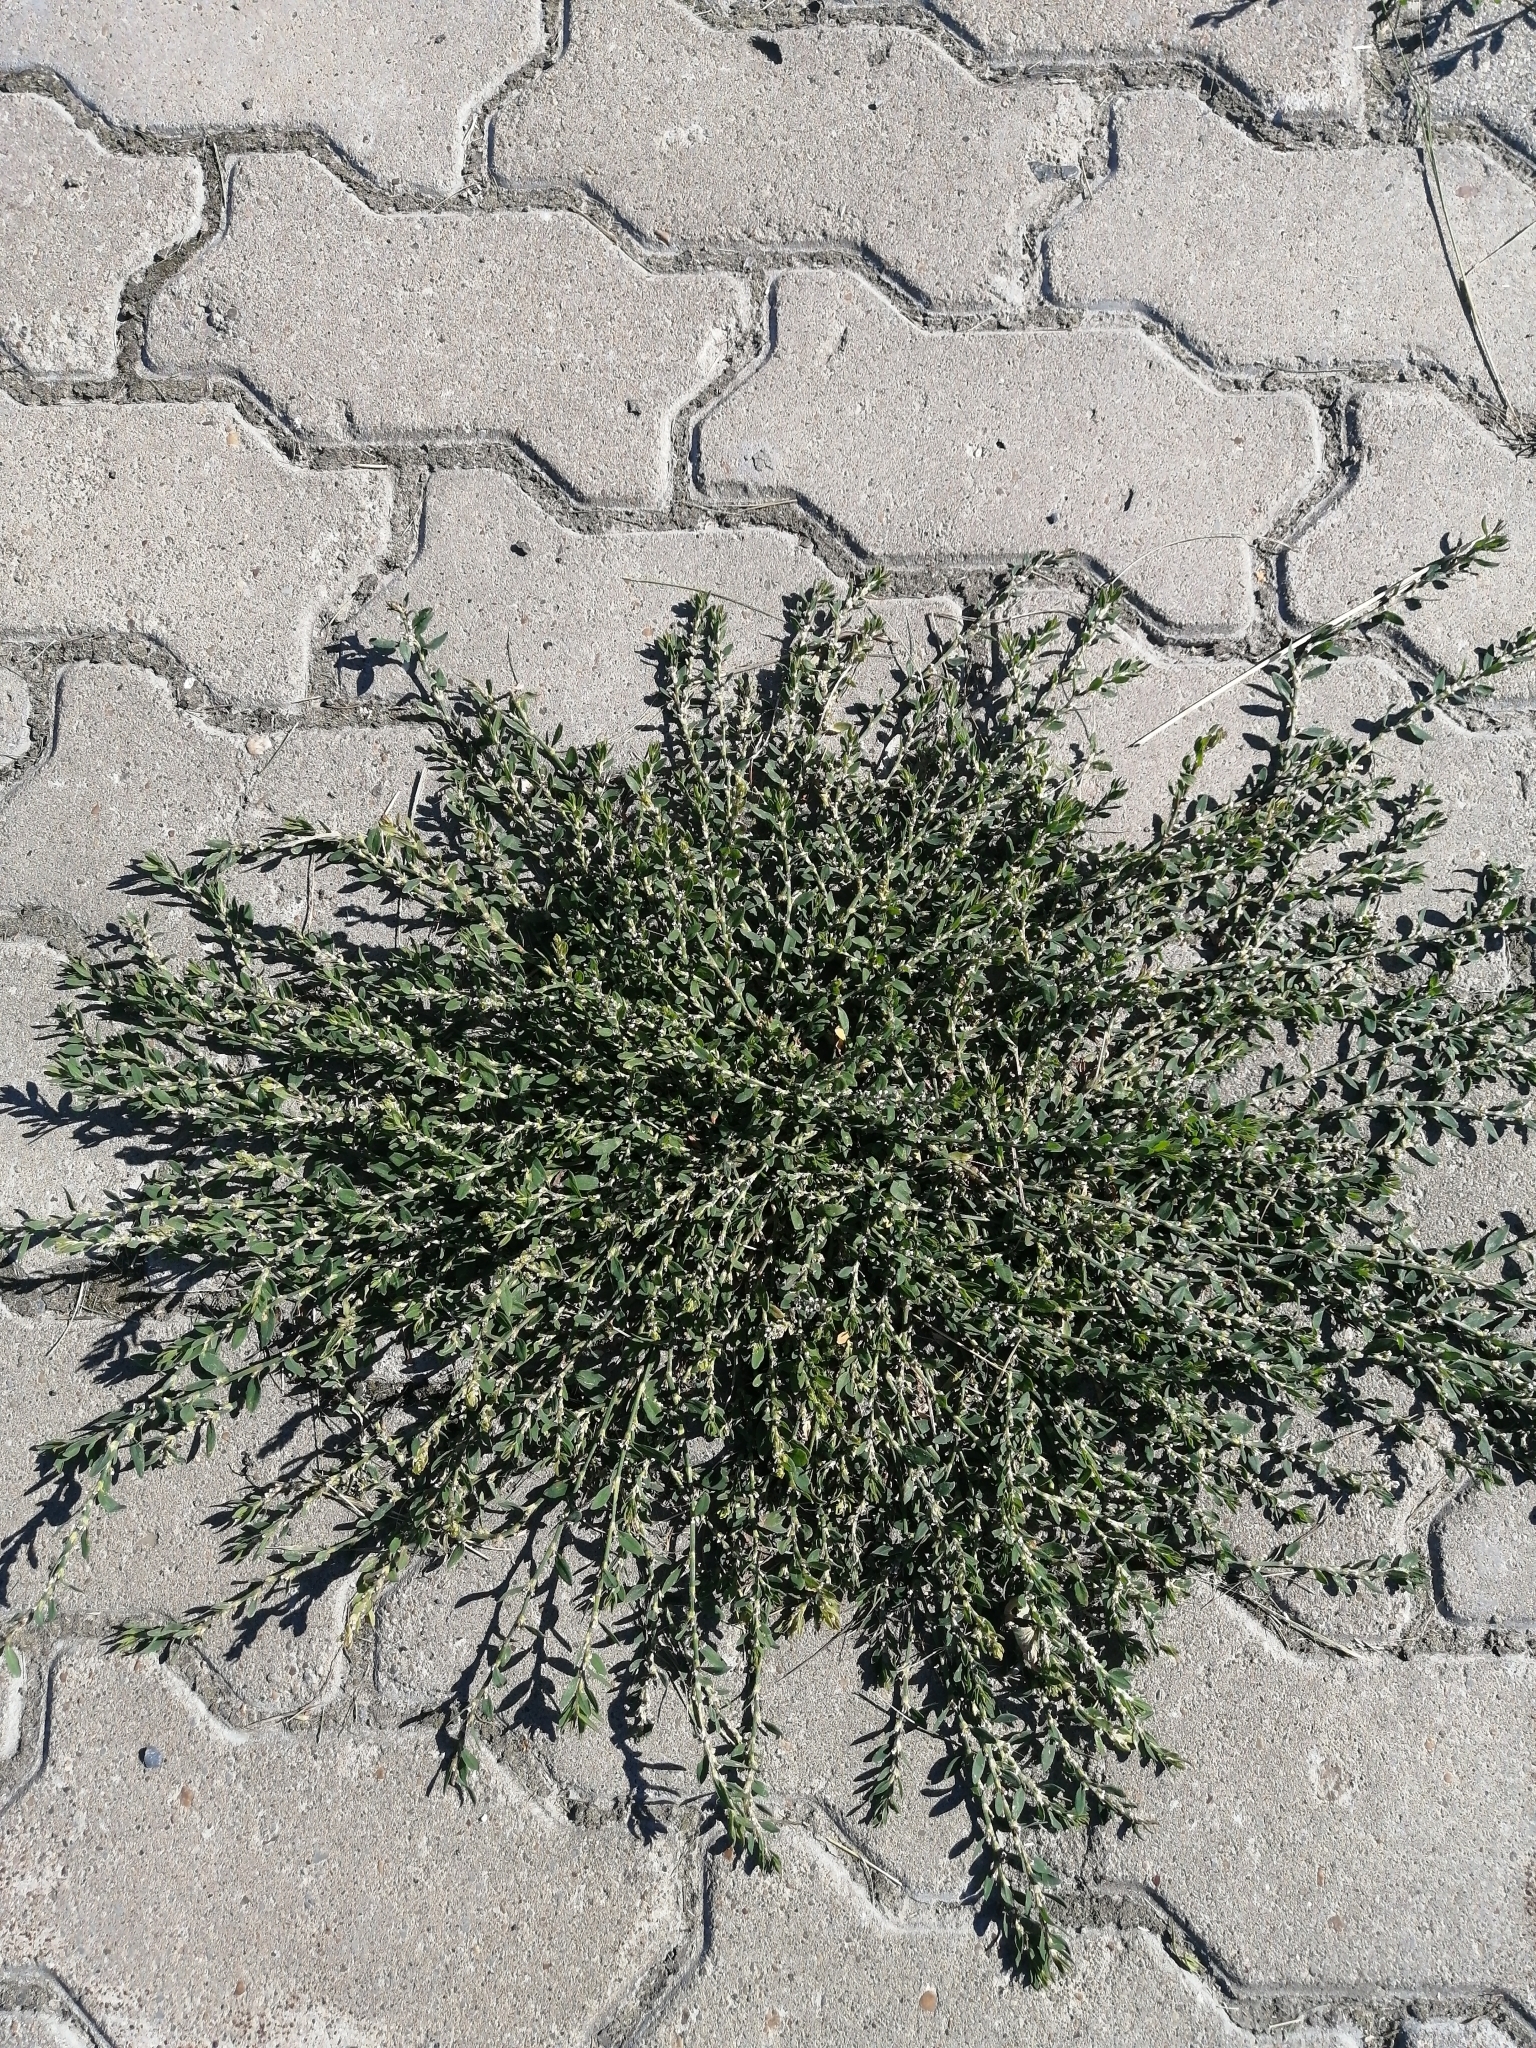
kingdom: Plantae
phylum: Tracheophyta
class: Magnoliopsida
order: Caryophyllales
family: Polygonaceae
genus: Polygonum
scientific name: Polygonum
